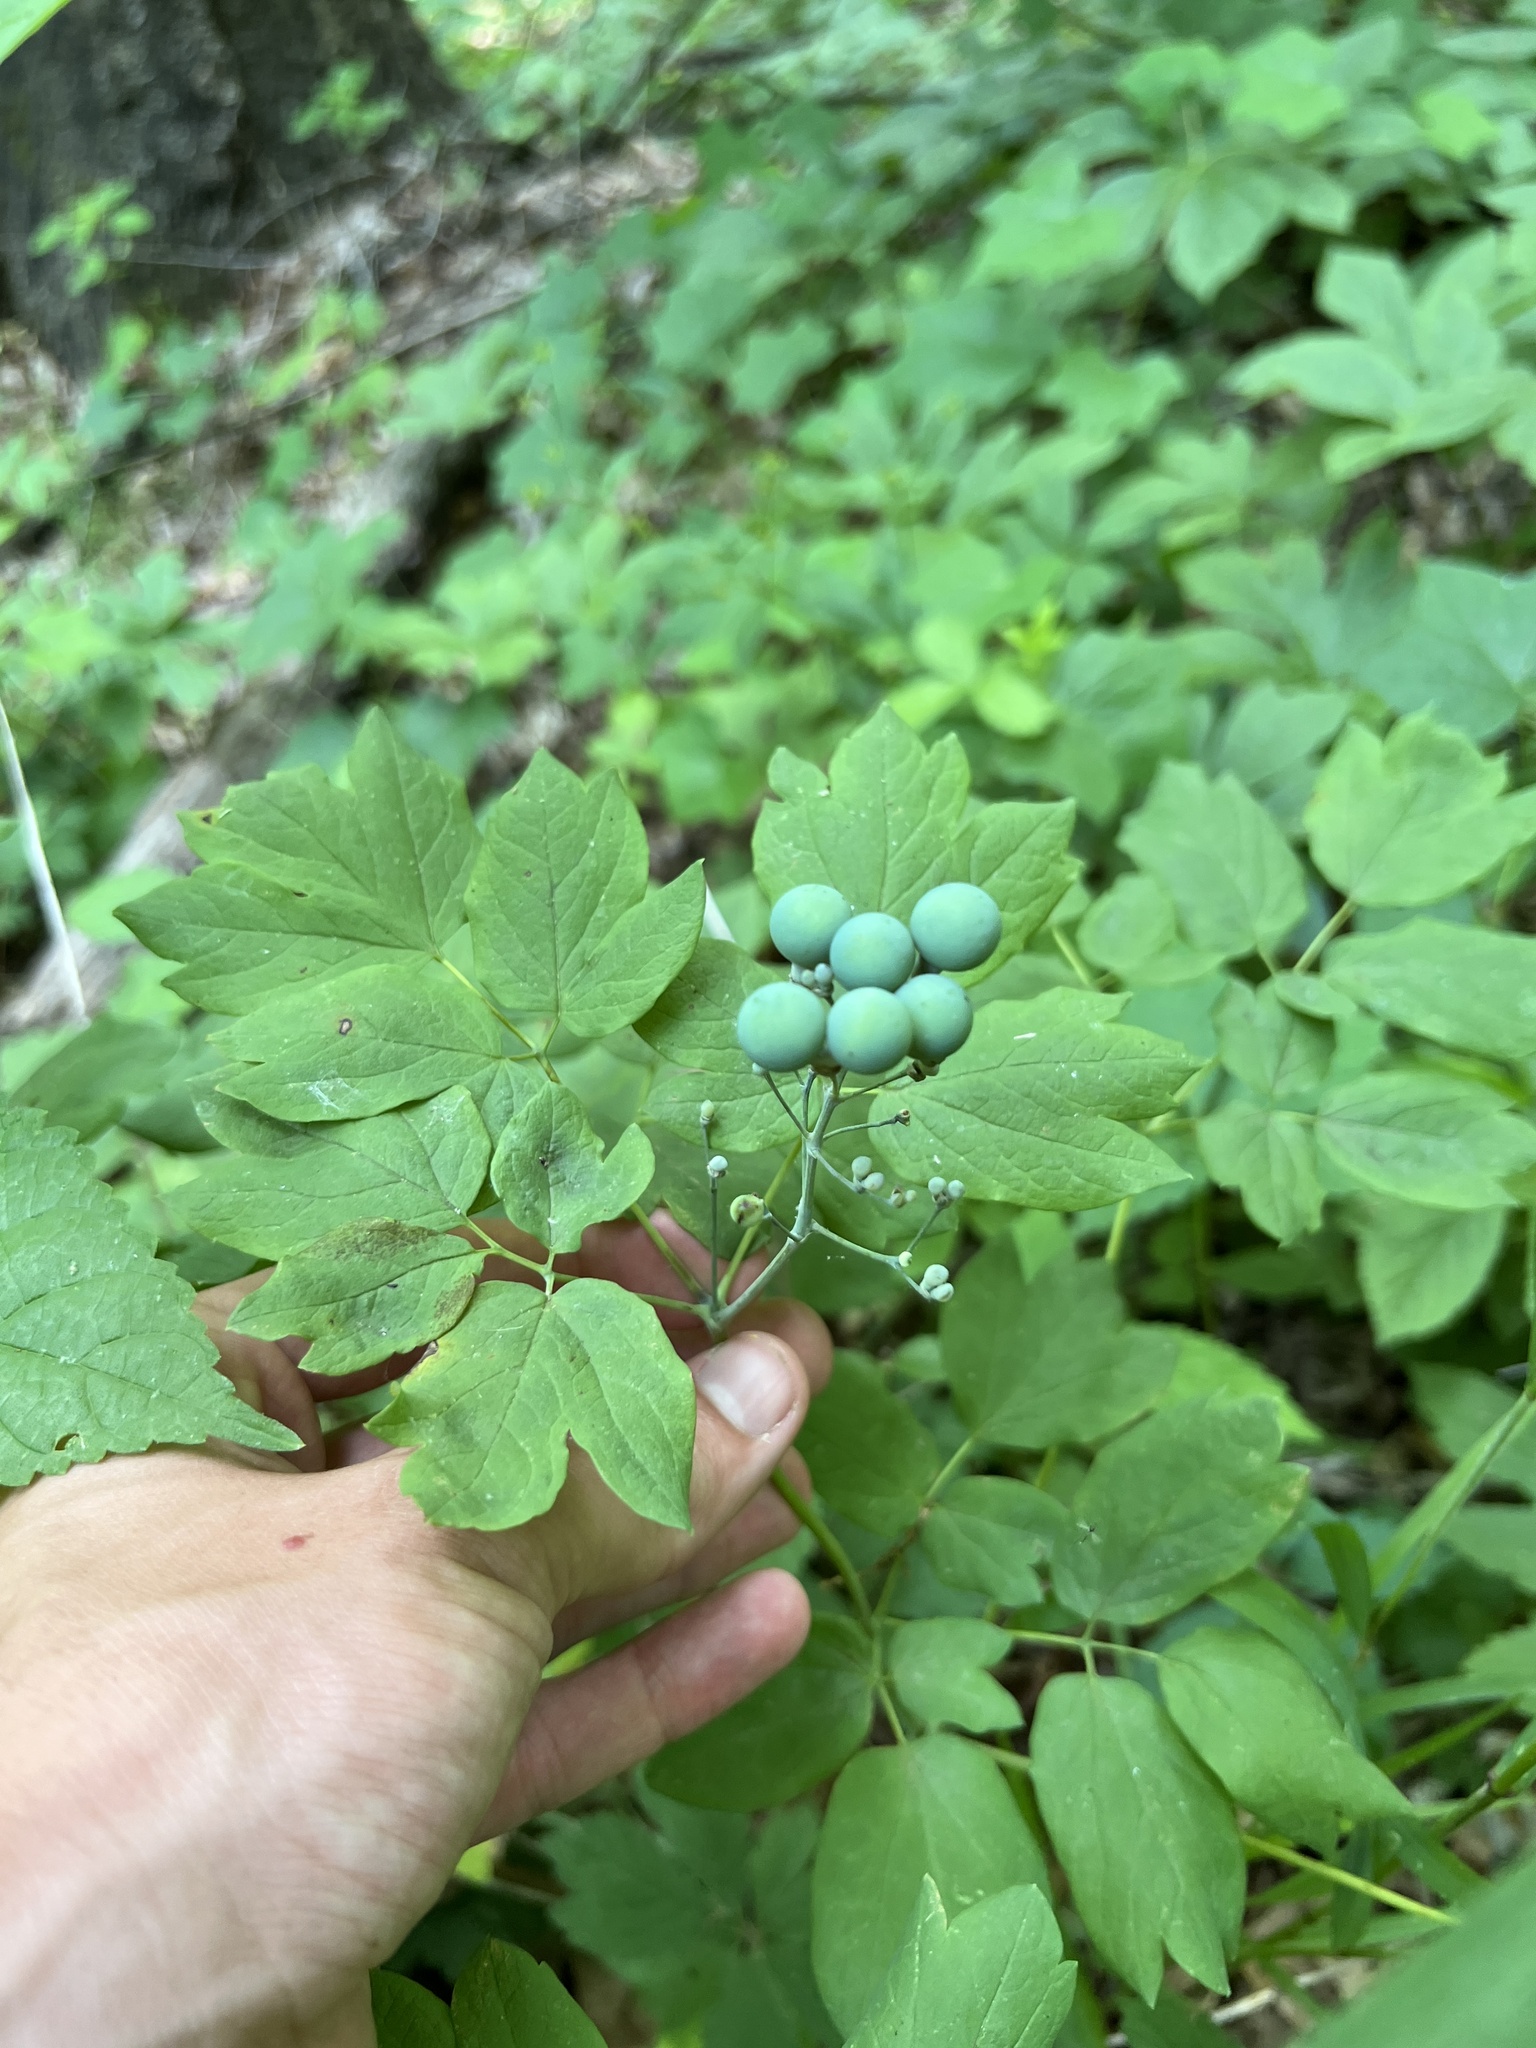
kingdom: Plantae
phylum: Tracheophyta
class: Magnoliopsida
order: Ranunculales
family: Berberidaceae
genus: Caulophyllum
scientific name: Caulophyllum thalictroides
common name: Blue cohosh
